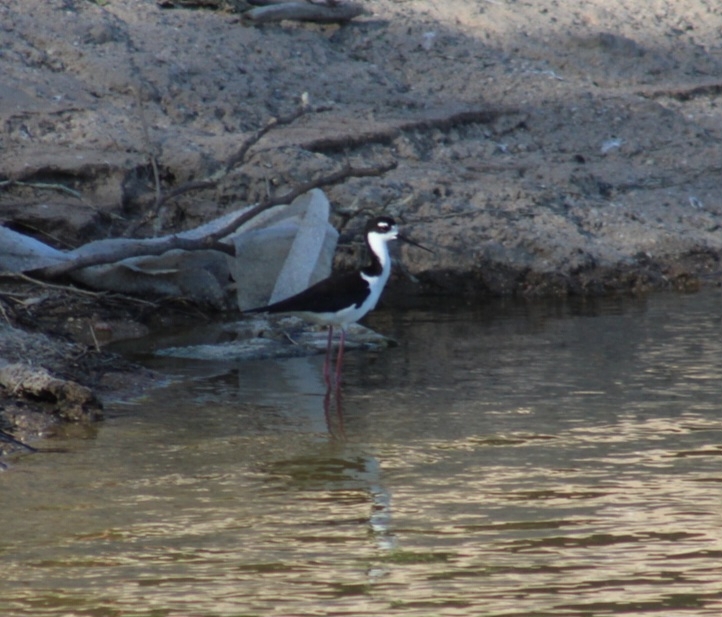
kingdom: Animalia
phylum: Chordata
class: Aves
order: Charadriiformes
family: Recurvirostridae
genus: Himantopus
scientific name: Himantopus mexicanus
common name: Black-necked stilt
